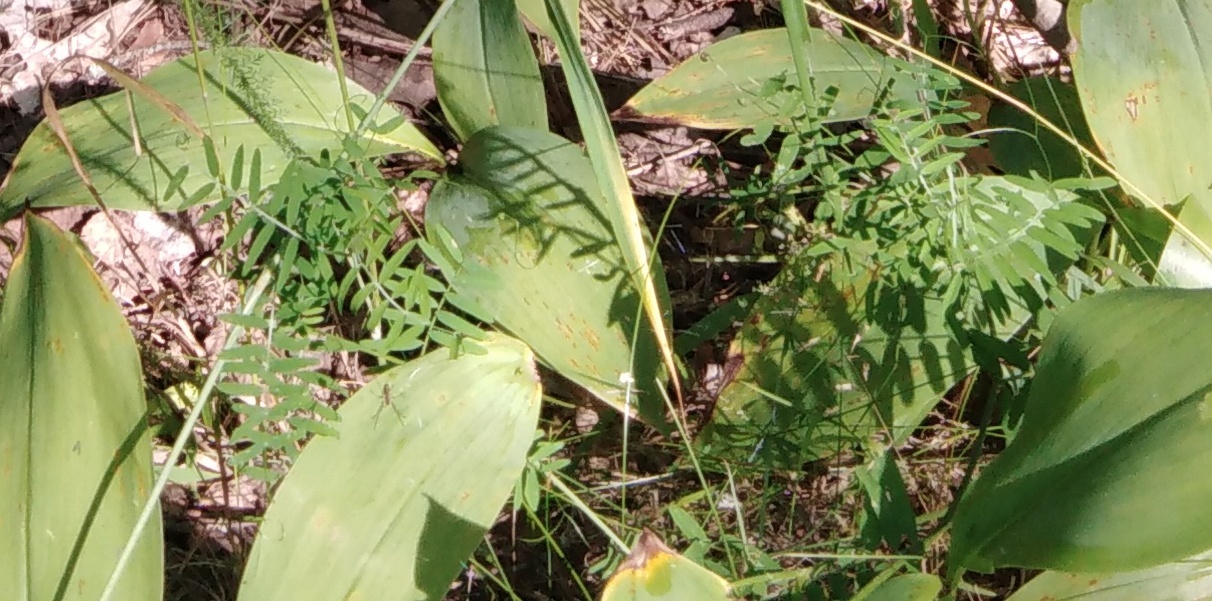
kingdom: Plantae
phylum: Tracheophyta
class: Magnoliopsida
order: Fabales
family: Fabaceae
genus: Vicia
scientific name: Vicia cracca
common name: Bird vetch
